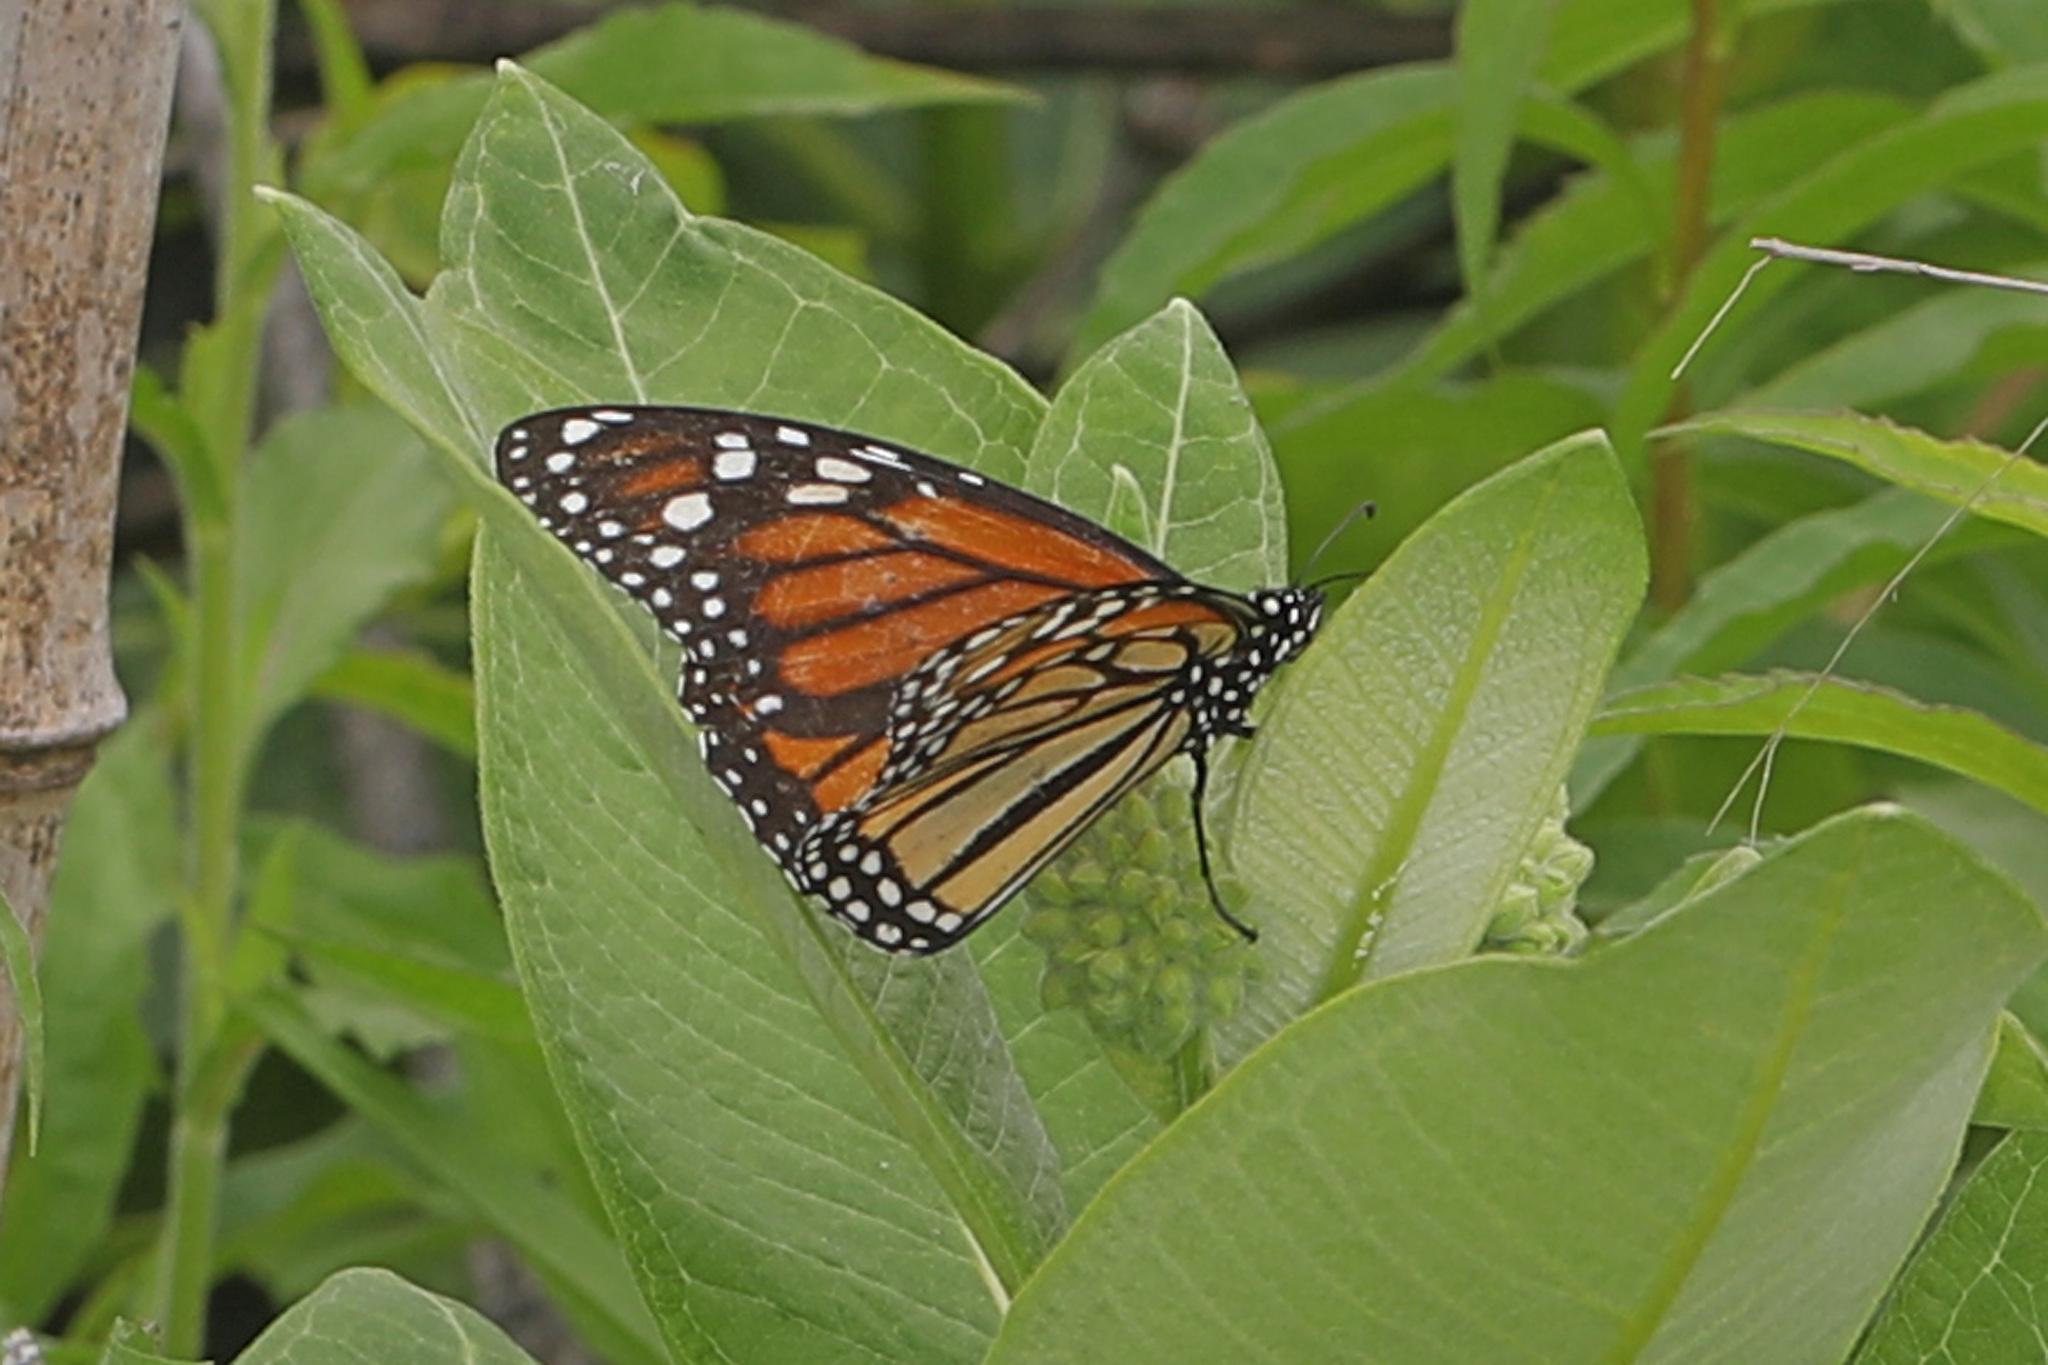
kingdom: Animalia
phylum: Arthropoda
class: Insecta
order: Lepidoptera
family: Nymphalidae
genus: Danaus
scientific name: Danaus plexippus
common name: Monarch
